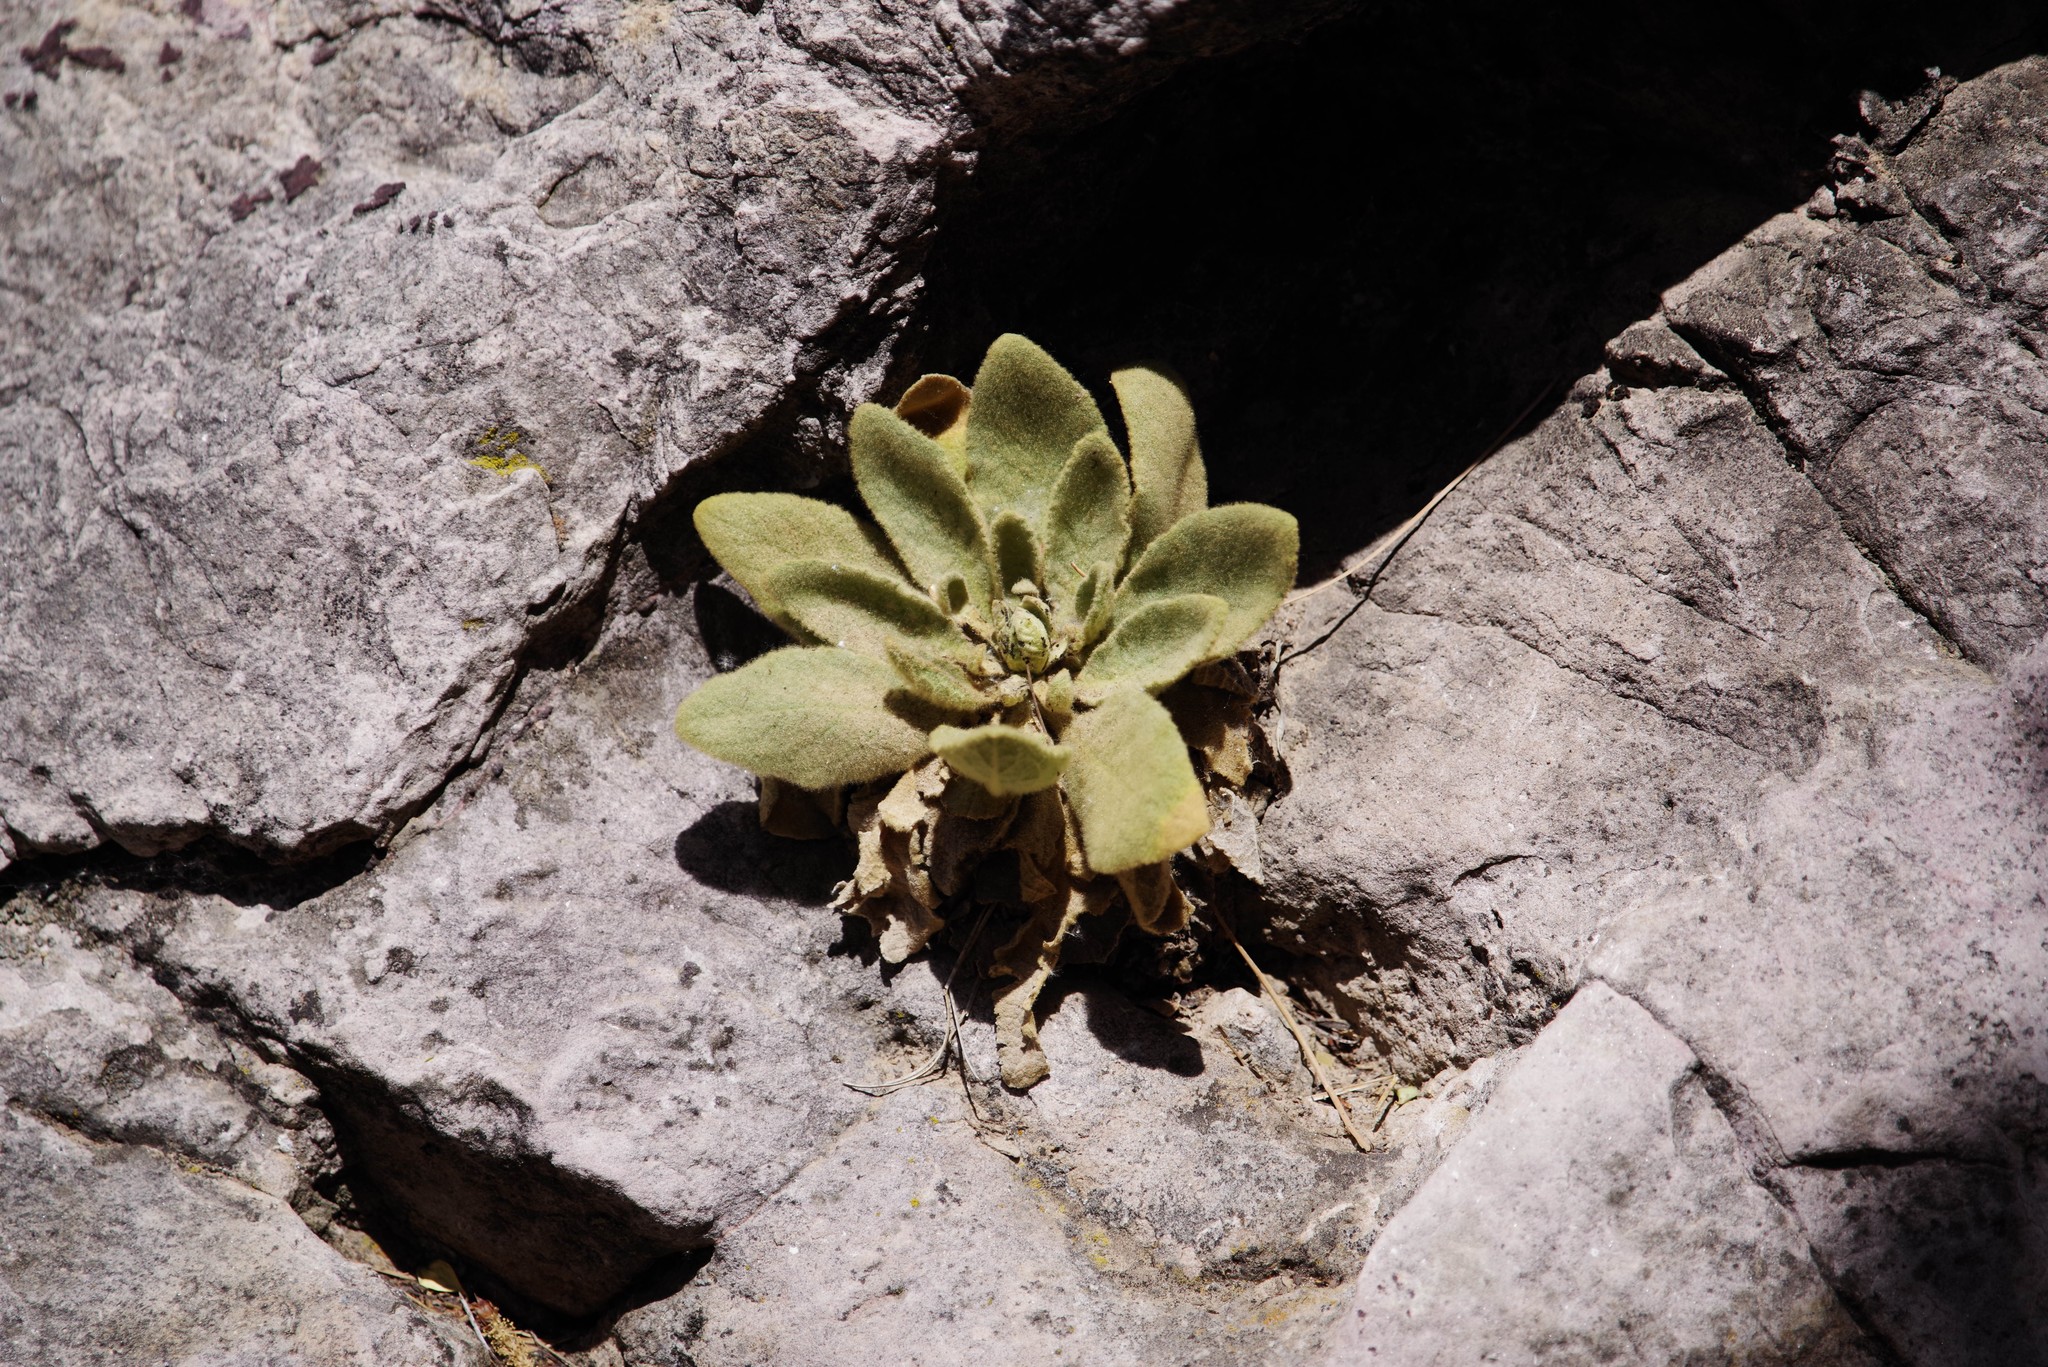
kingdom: Plantae
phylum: Tracheophyta
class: Magnoliopsida
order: Lamiales
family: Scrophulariaceae
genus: Verbascum
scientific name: Verbascum thapsus
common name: Common mullein
